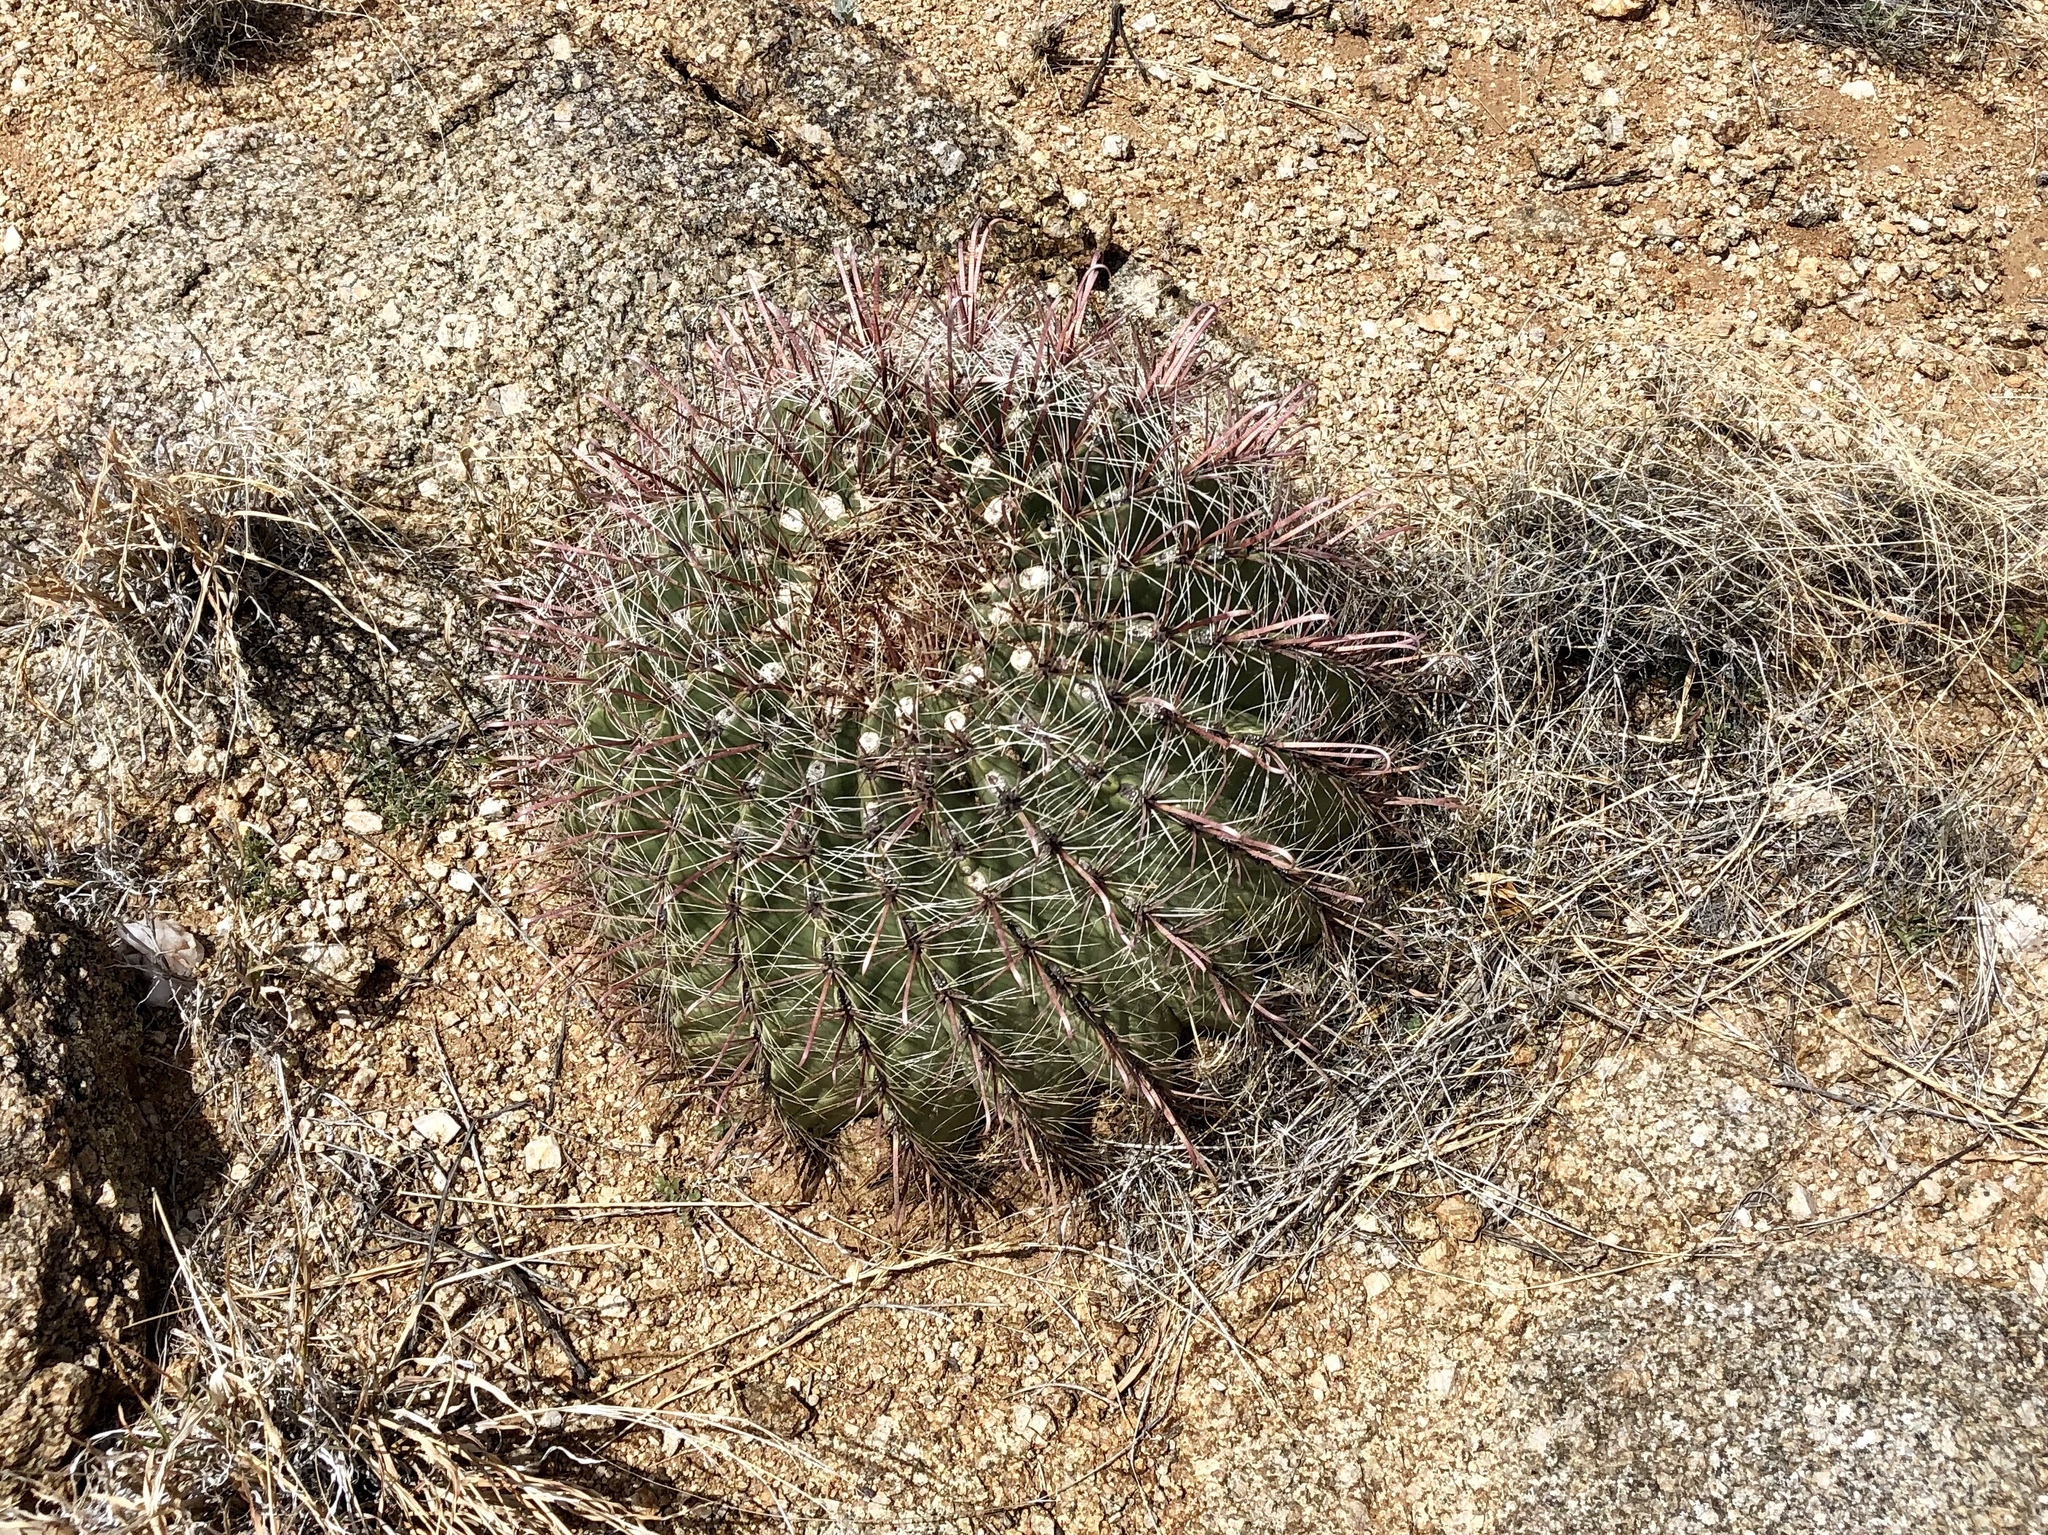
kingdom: Plantae
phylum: Tracheophyta
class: Magnoliopsida
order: Caryophyllales
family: Cactaceae
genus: Ferocactus
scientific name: Ferocactus wislizeni
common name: Candy barrel cactus
